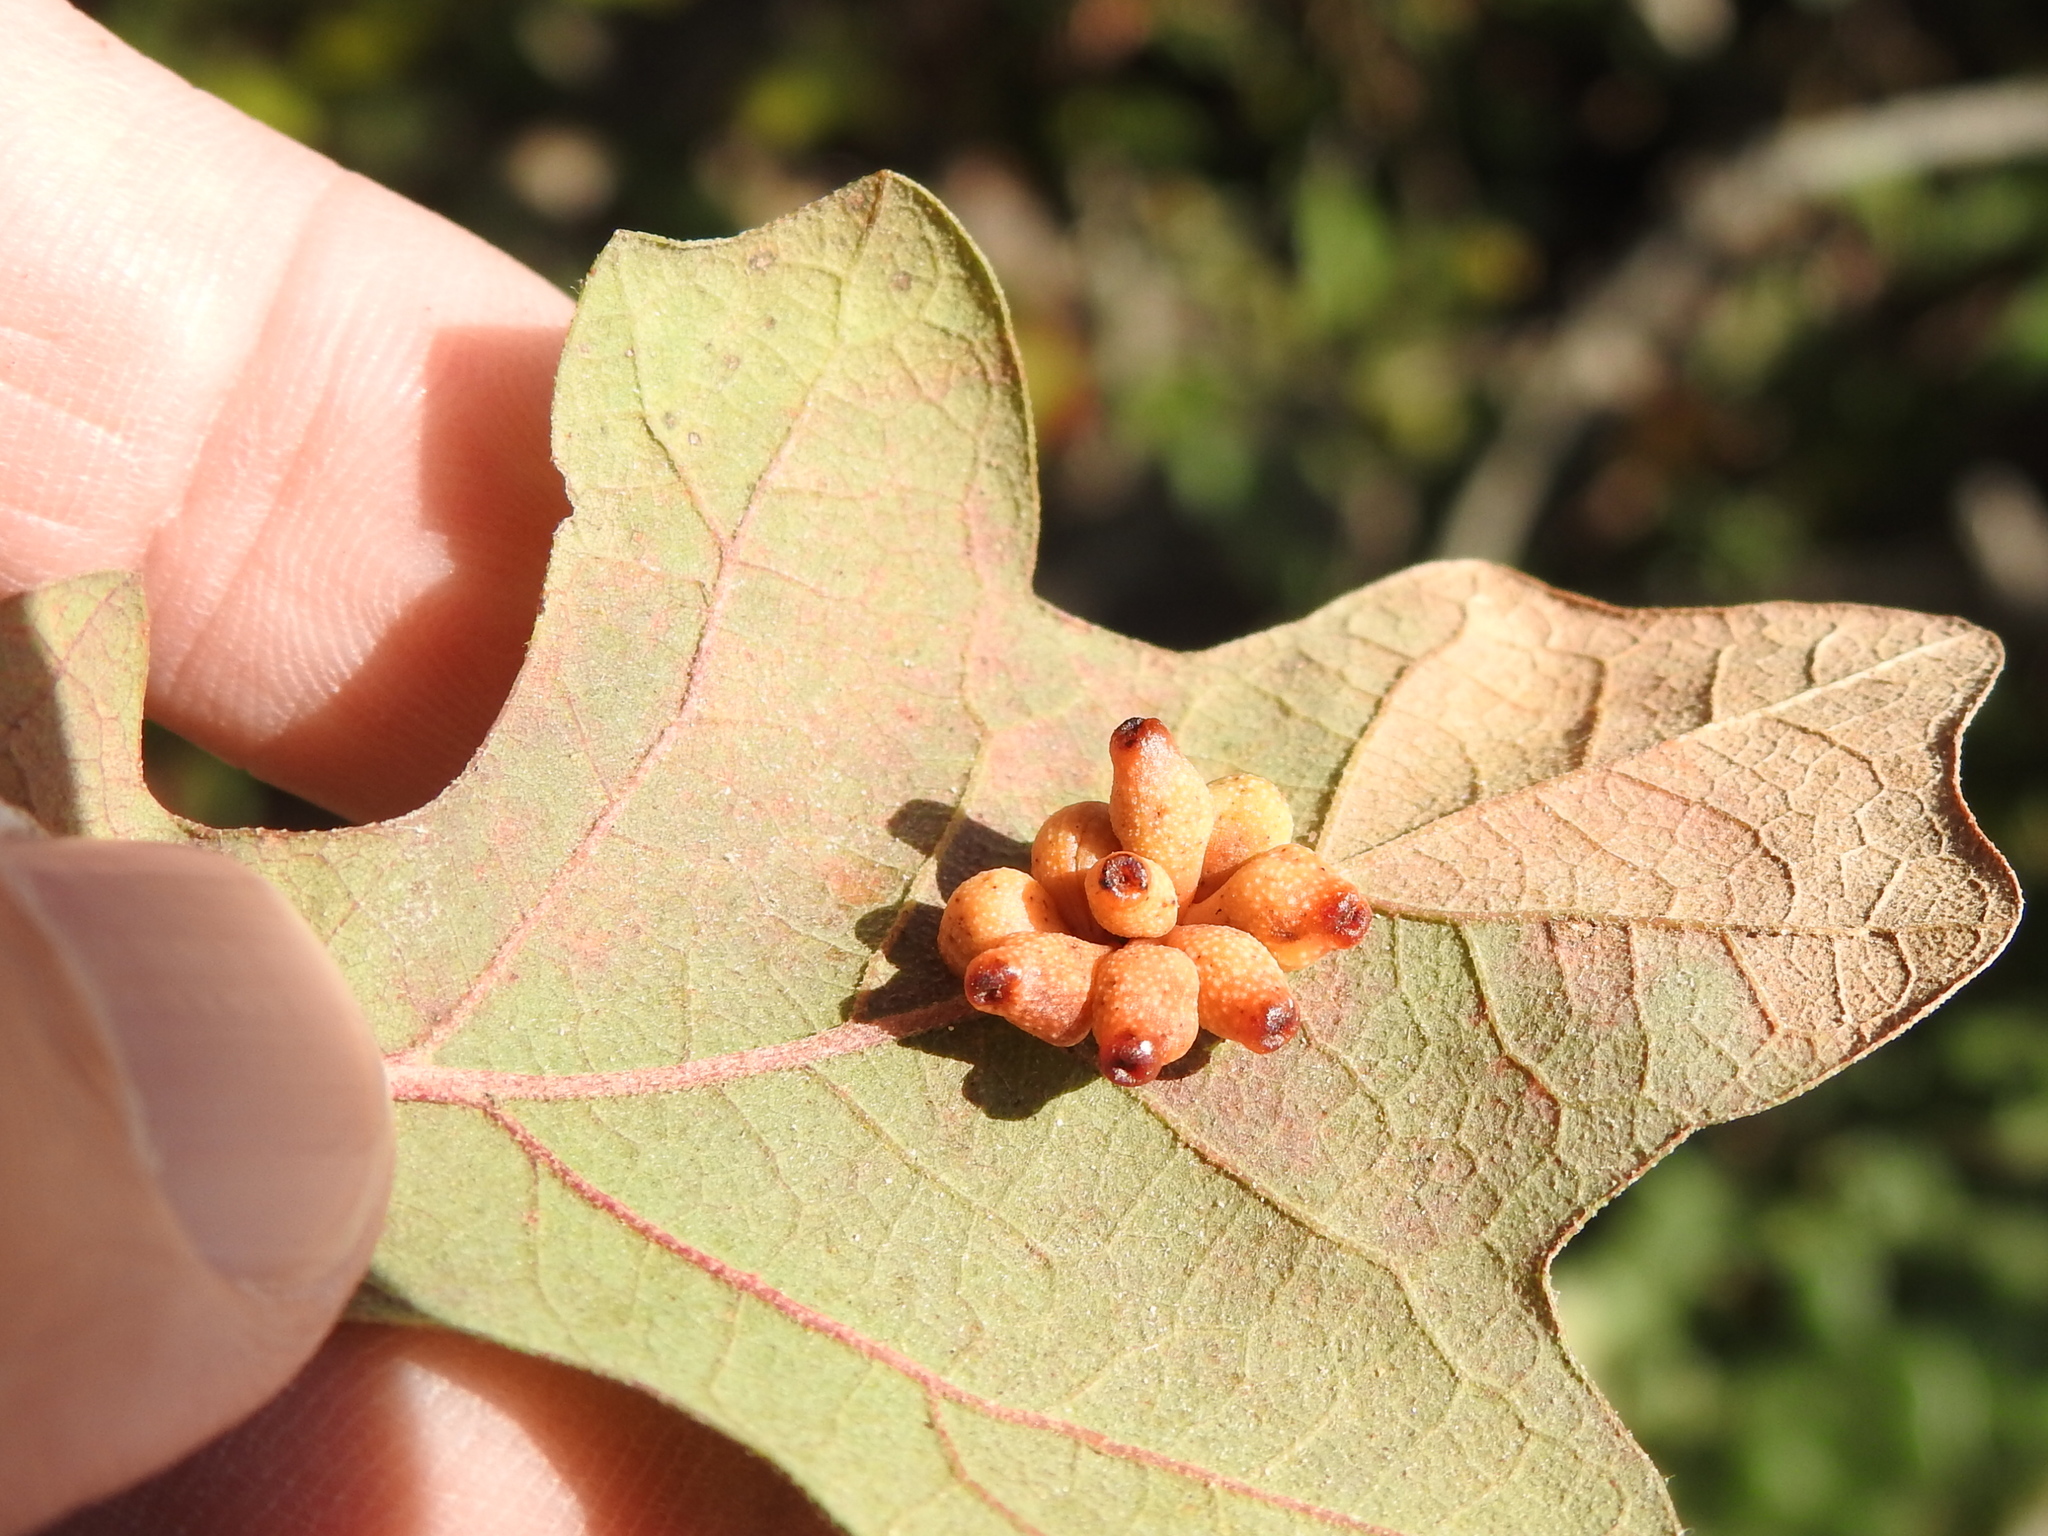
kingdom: Animalia
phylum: Arthropoda
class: Insecta
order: Hymenoptera
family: Cynipidae
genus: Andricus
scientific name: Andricus lustrans
